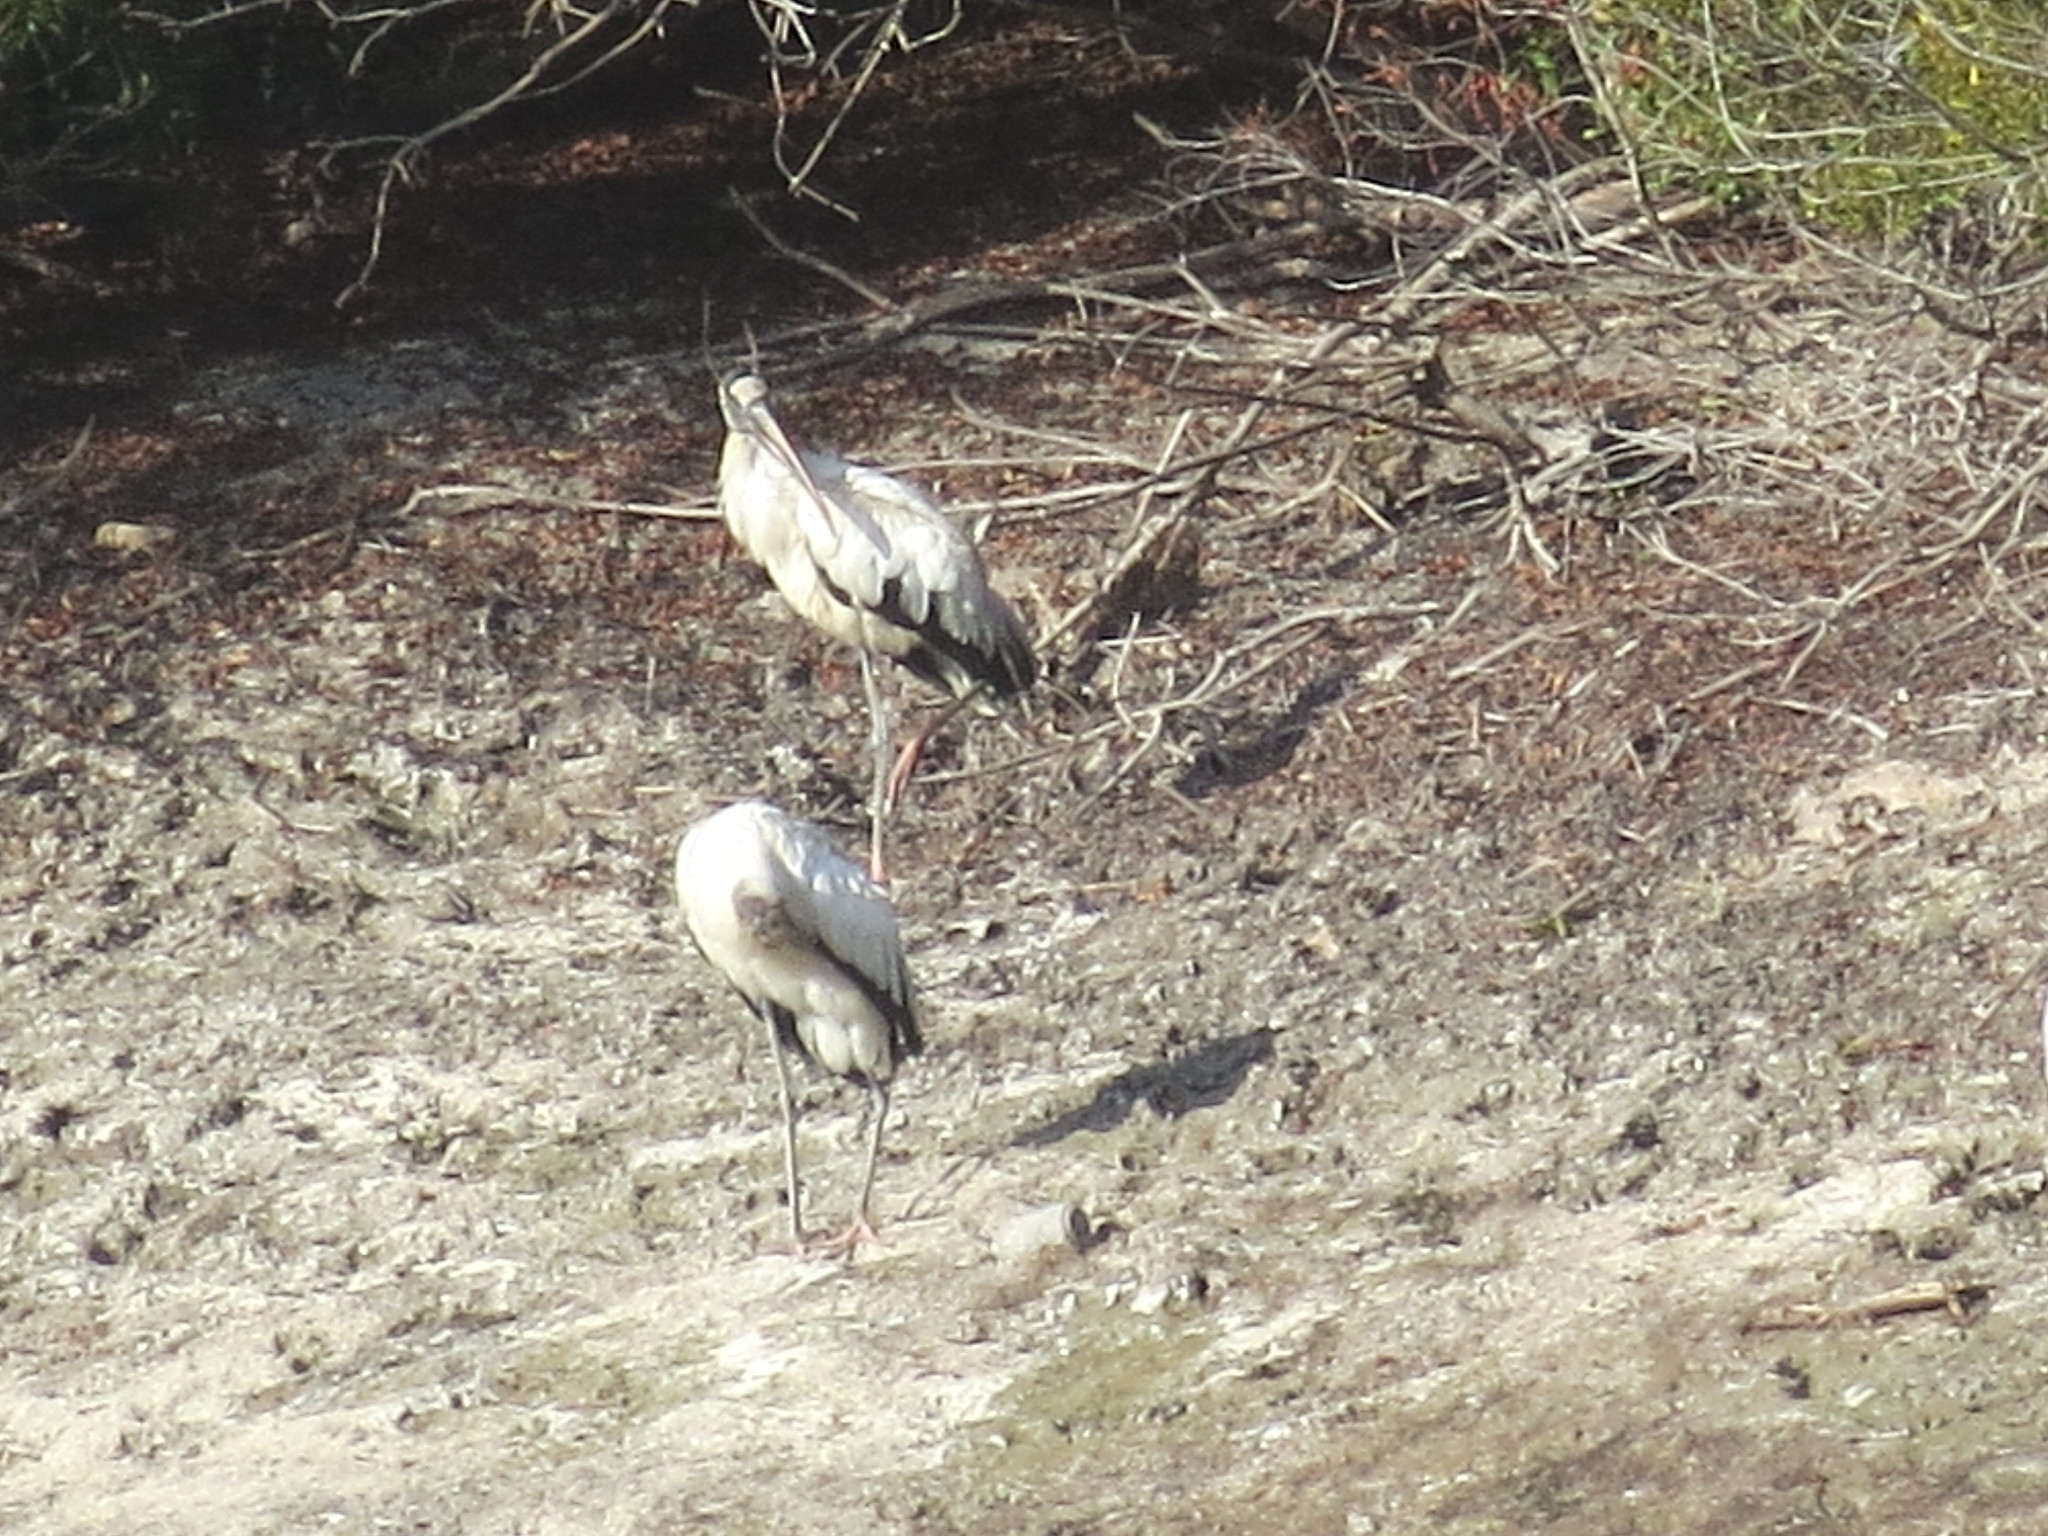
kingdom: Animalia
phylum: Chordata
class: Aves
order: Ciconiiformes
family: Ciconiidae
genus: Mycteria
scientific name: Mycteria americana
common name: Wood stork
